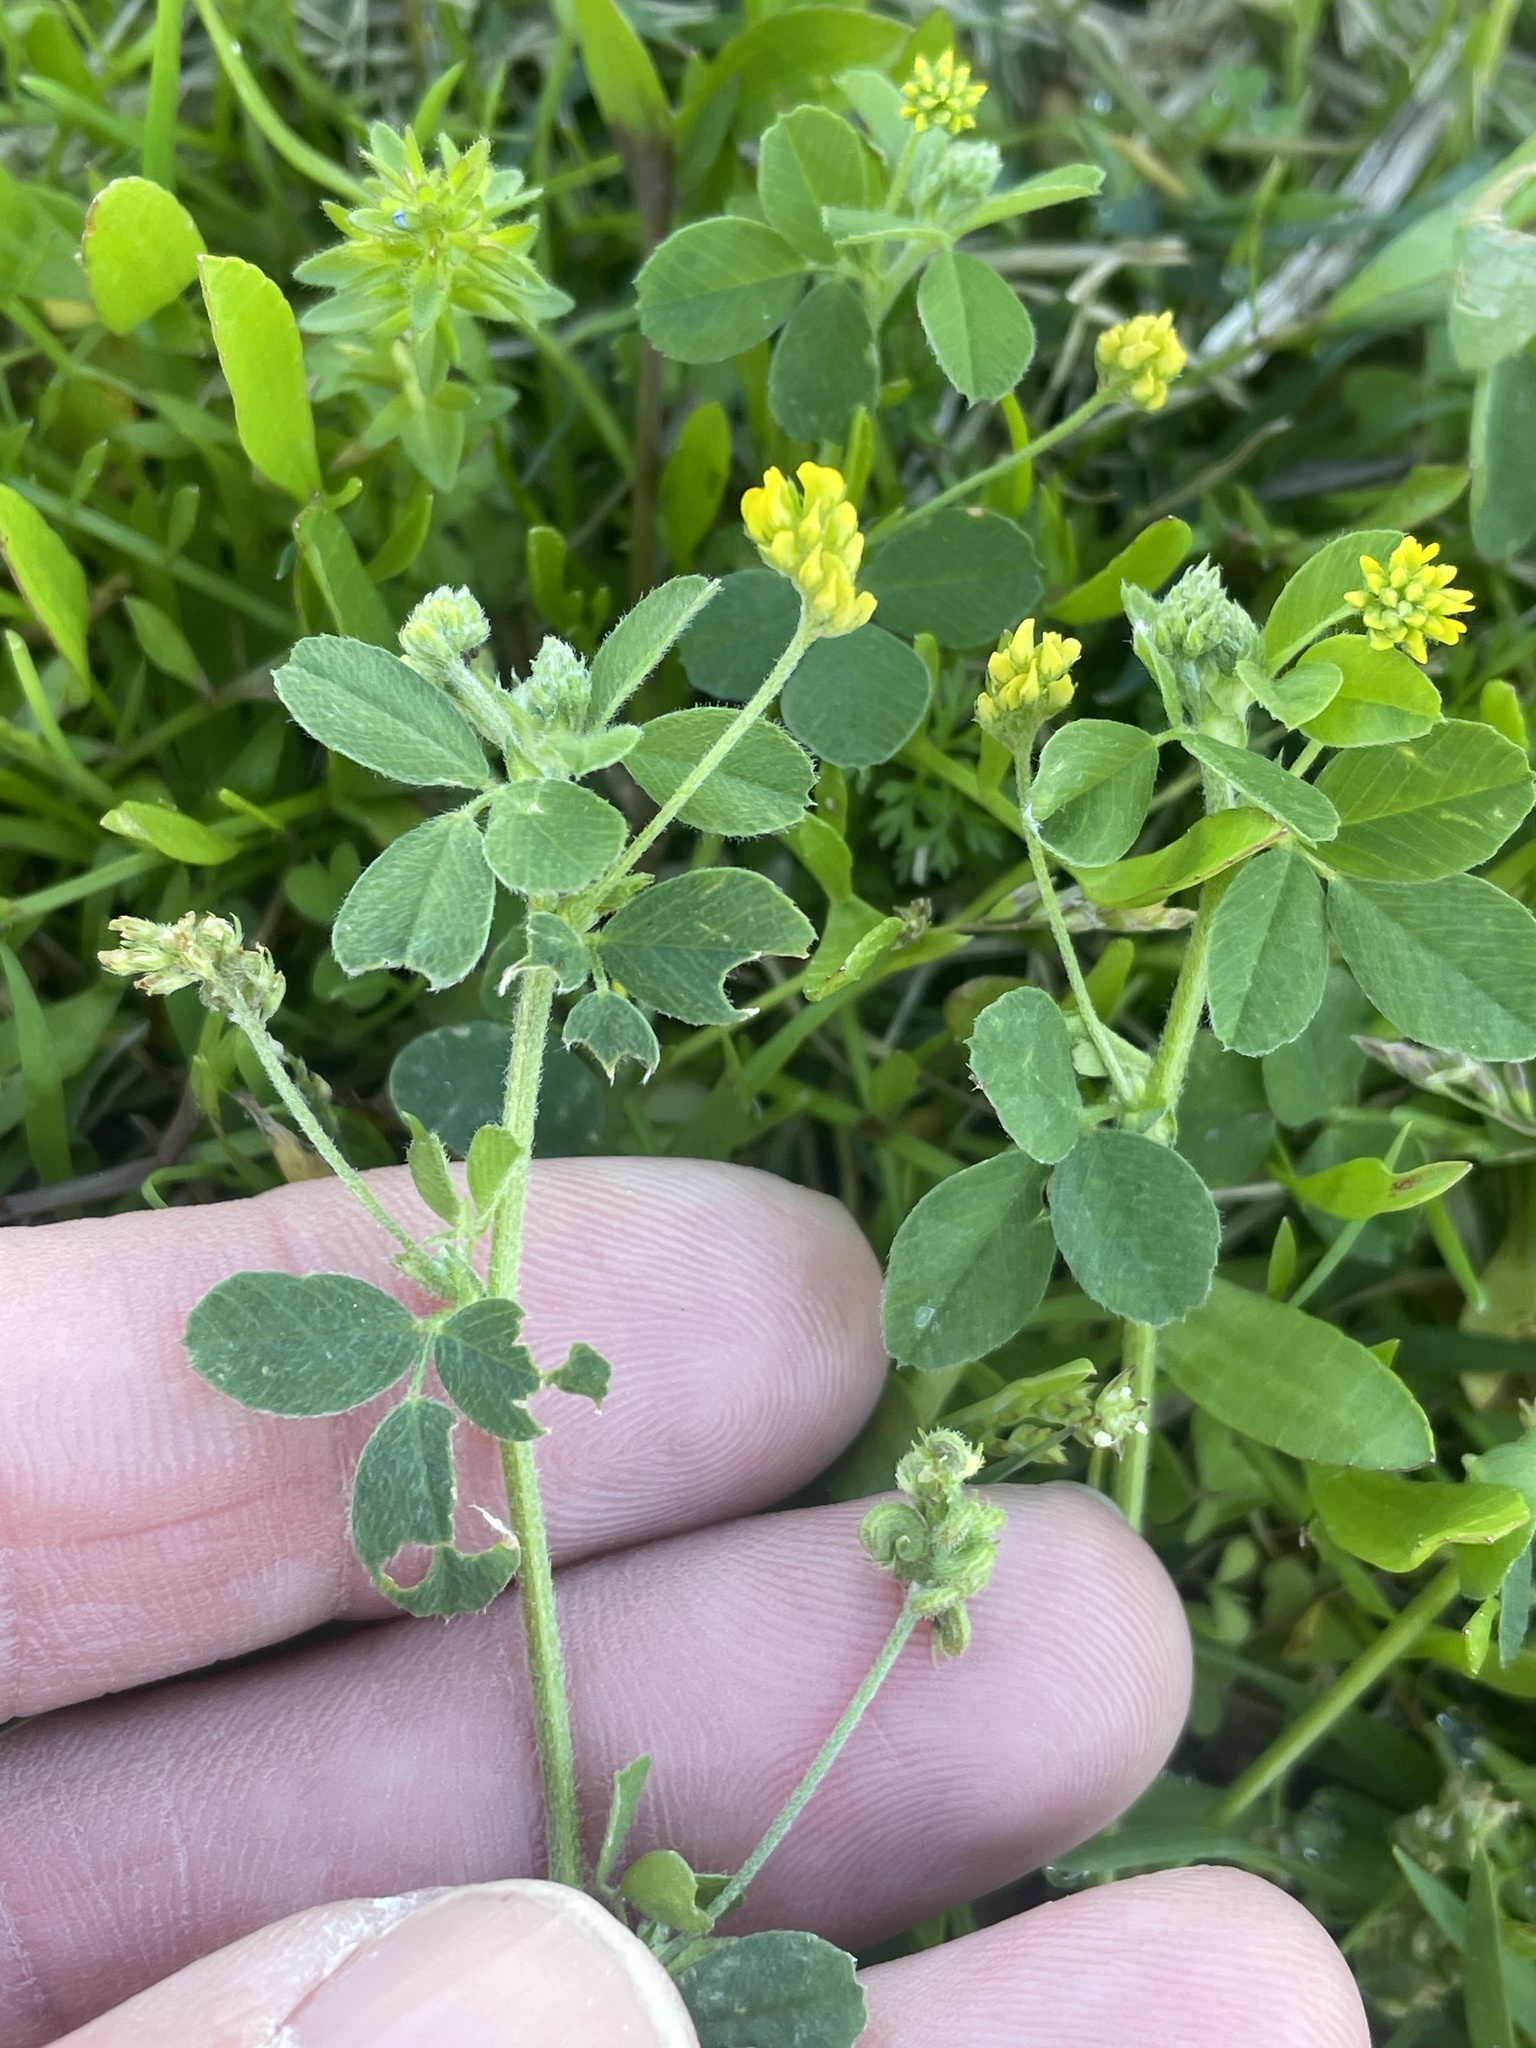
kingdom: Plantae
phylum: Tracheophyta
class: Magnoliopsida
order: Fabales
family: Fabaceae
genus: Medicago
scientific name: Medicago lupulina
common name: Black medick
